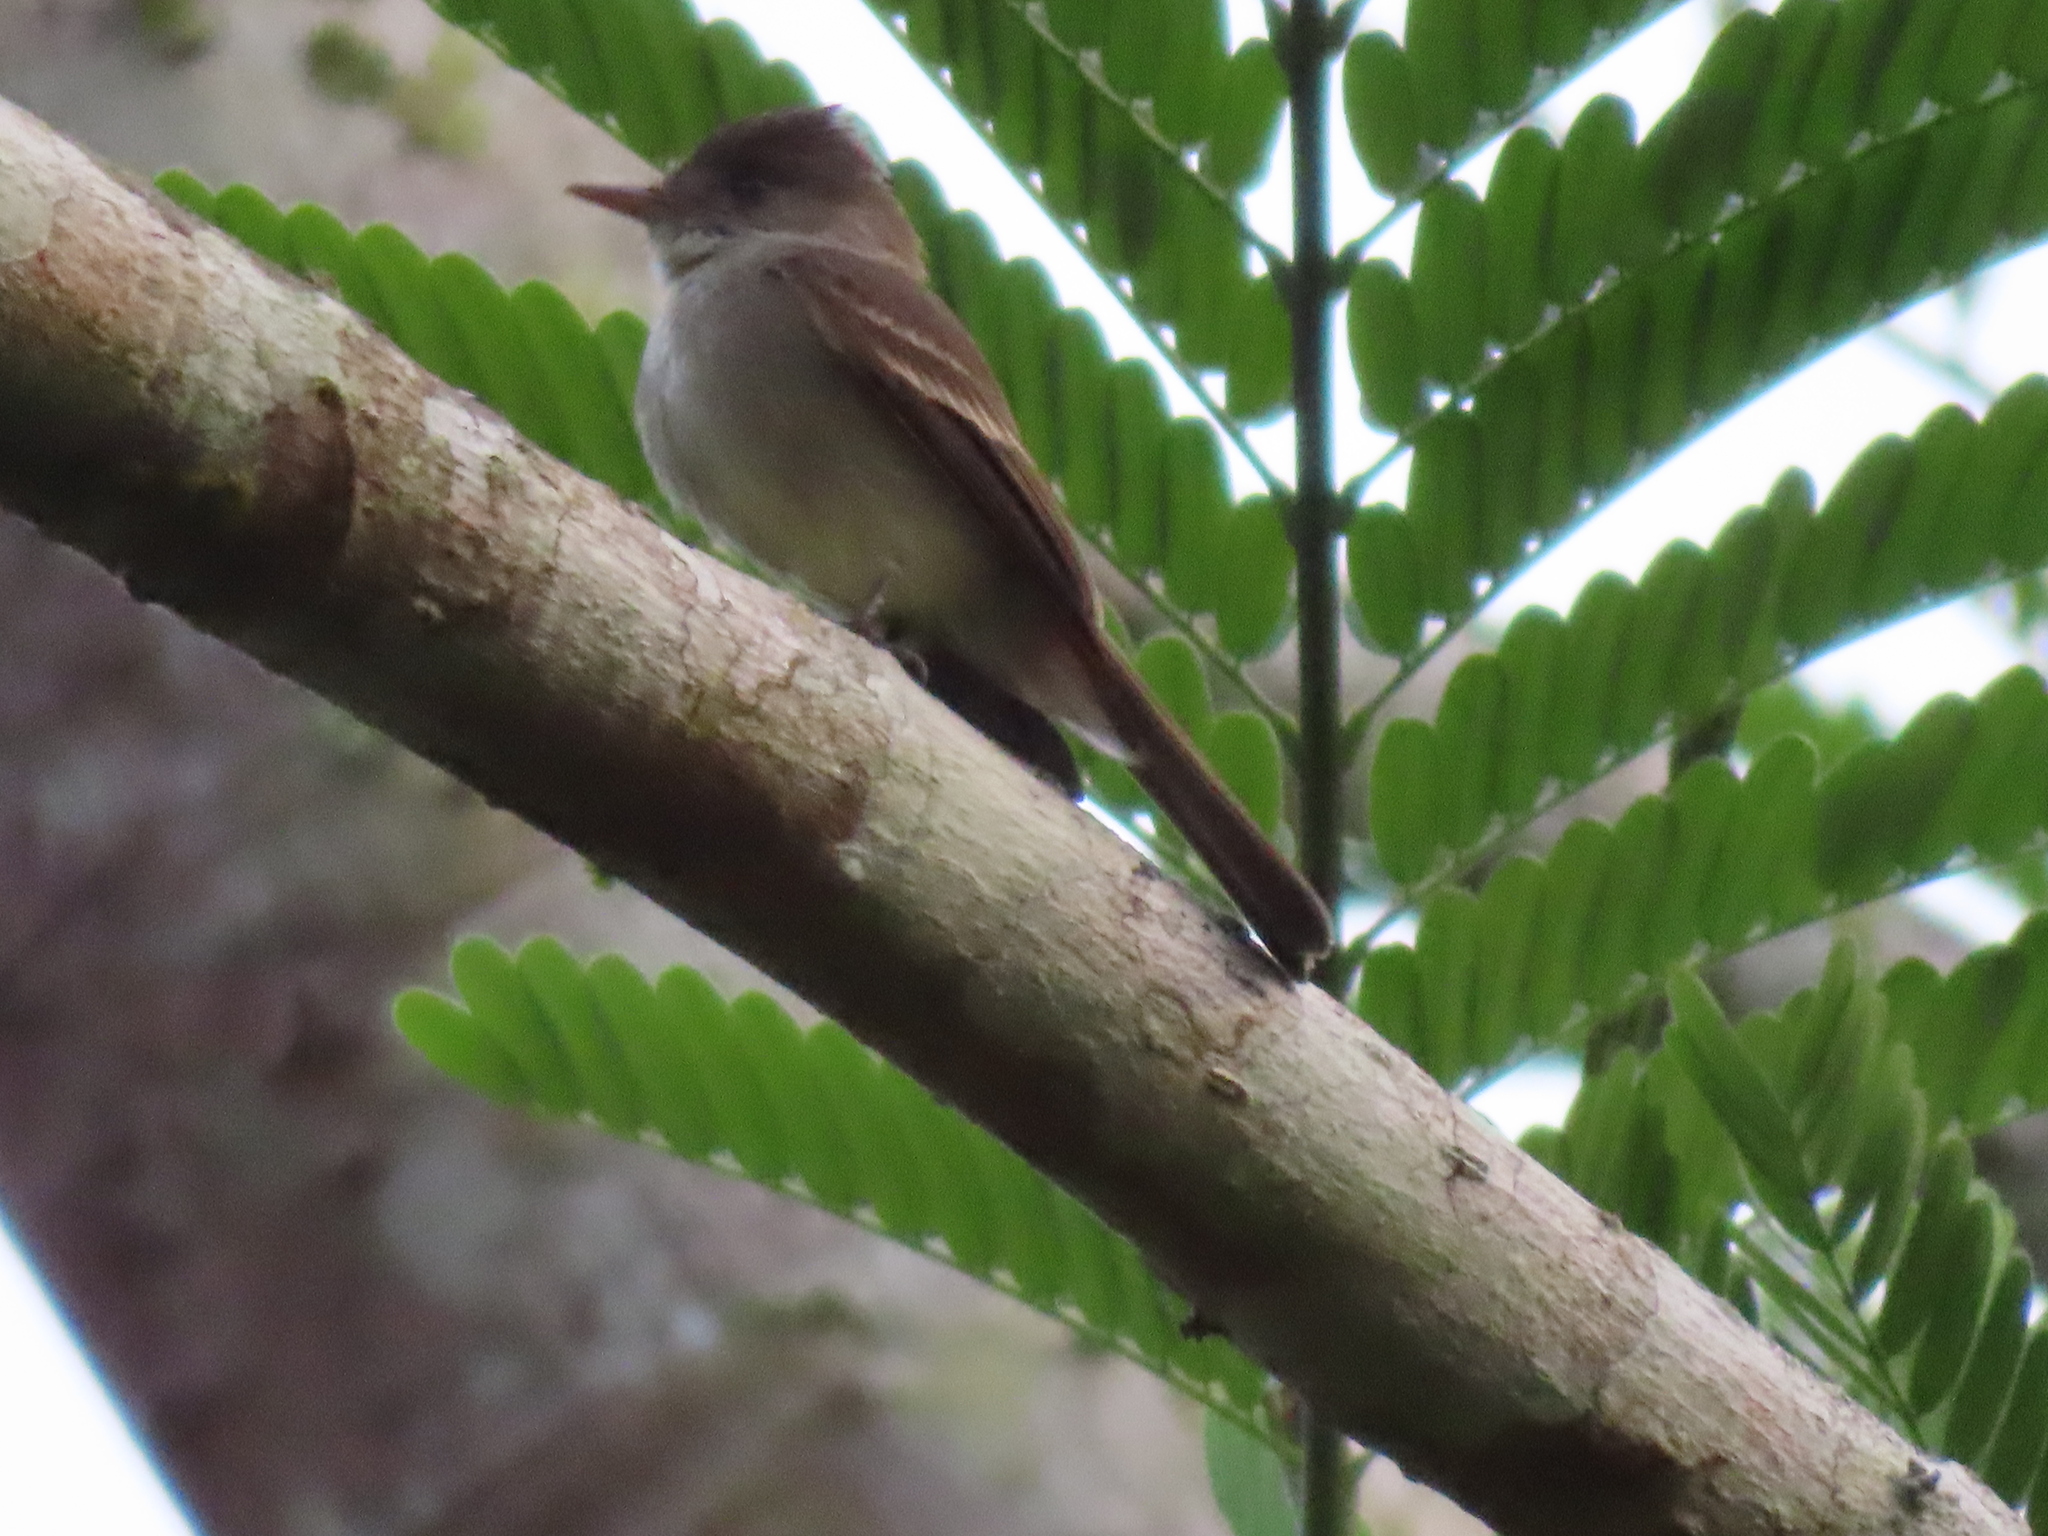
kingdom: Animalia
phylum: Chordata
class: Aves
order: Passeriformes
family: Tyrannidae
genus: Contopus
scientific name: Contopus cinereus
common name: Tropical pewee
